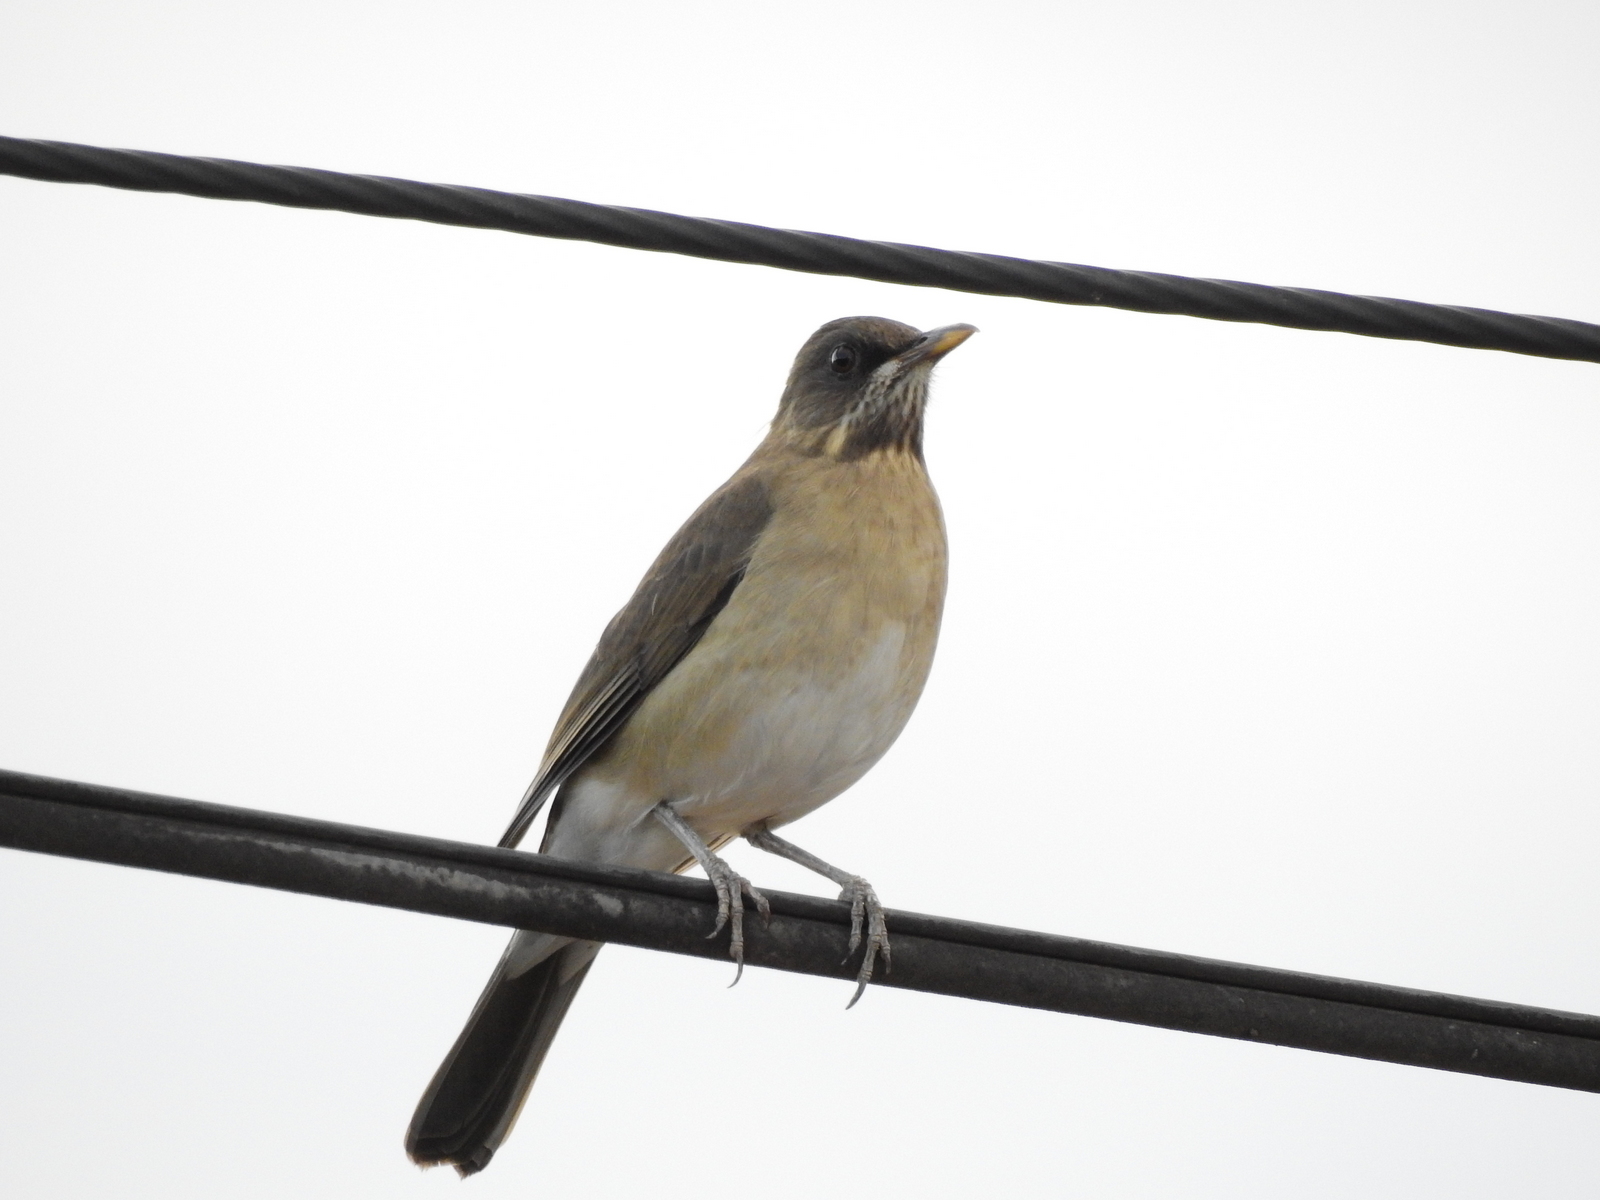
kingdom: Animalia
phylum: Chordata
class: Aves
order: Passeriformes
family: Turdidae
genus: Turdus
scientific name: Turdus amaurochalinus
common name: Creamy-bellied thrush
